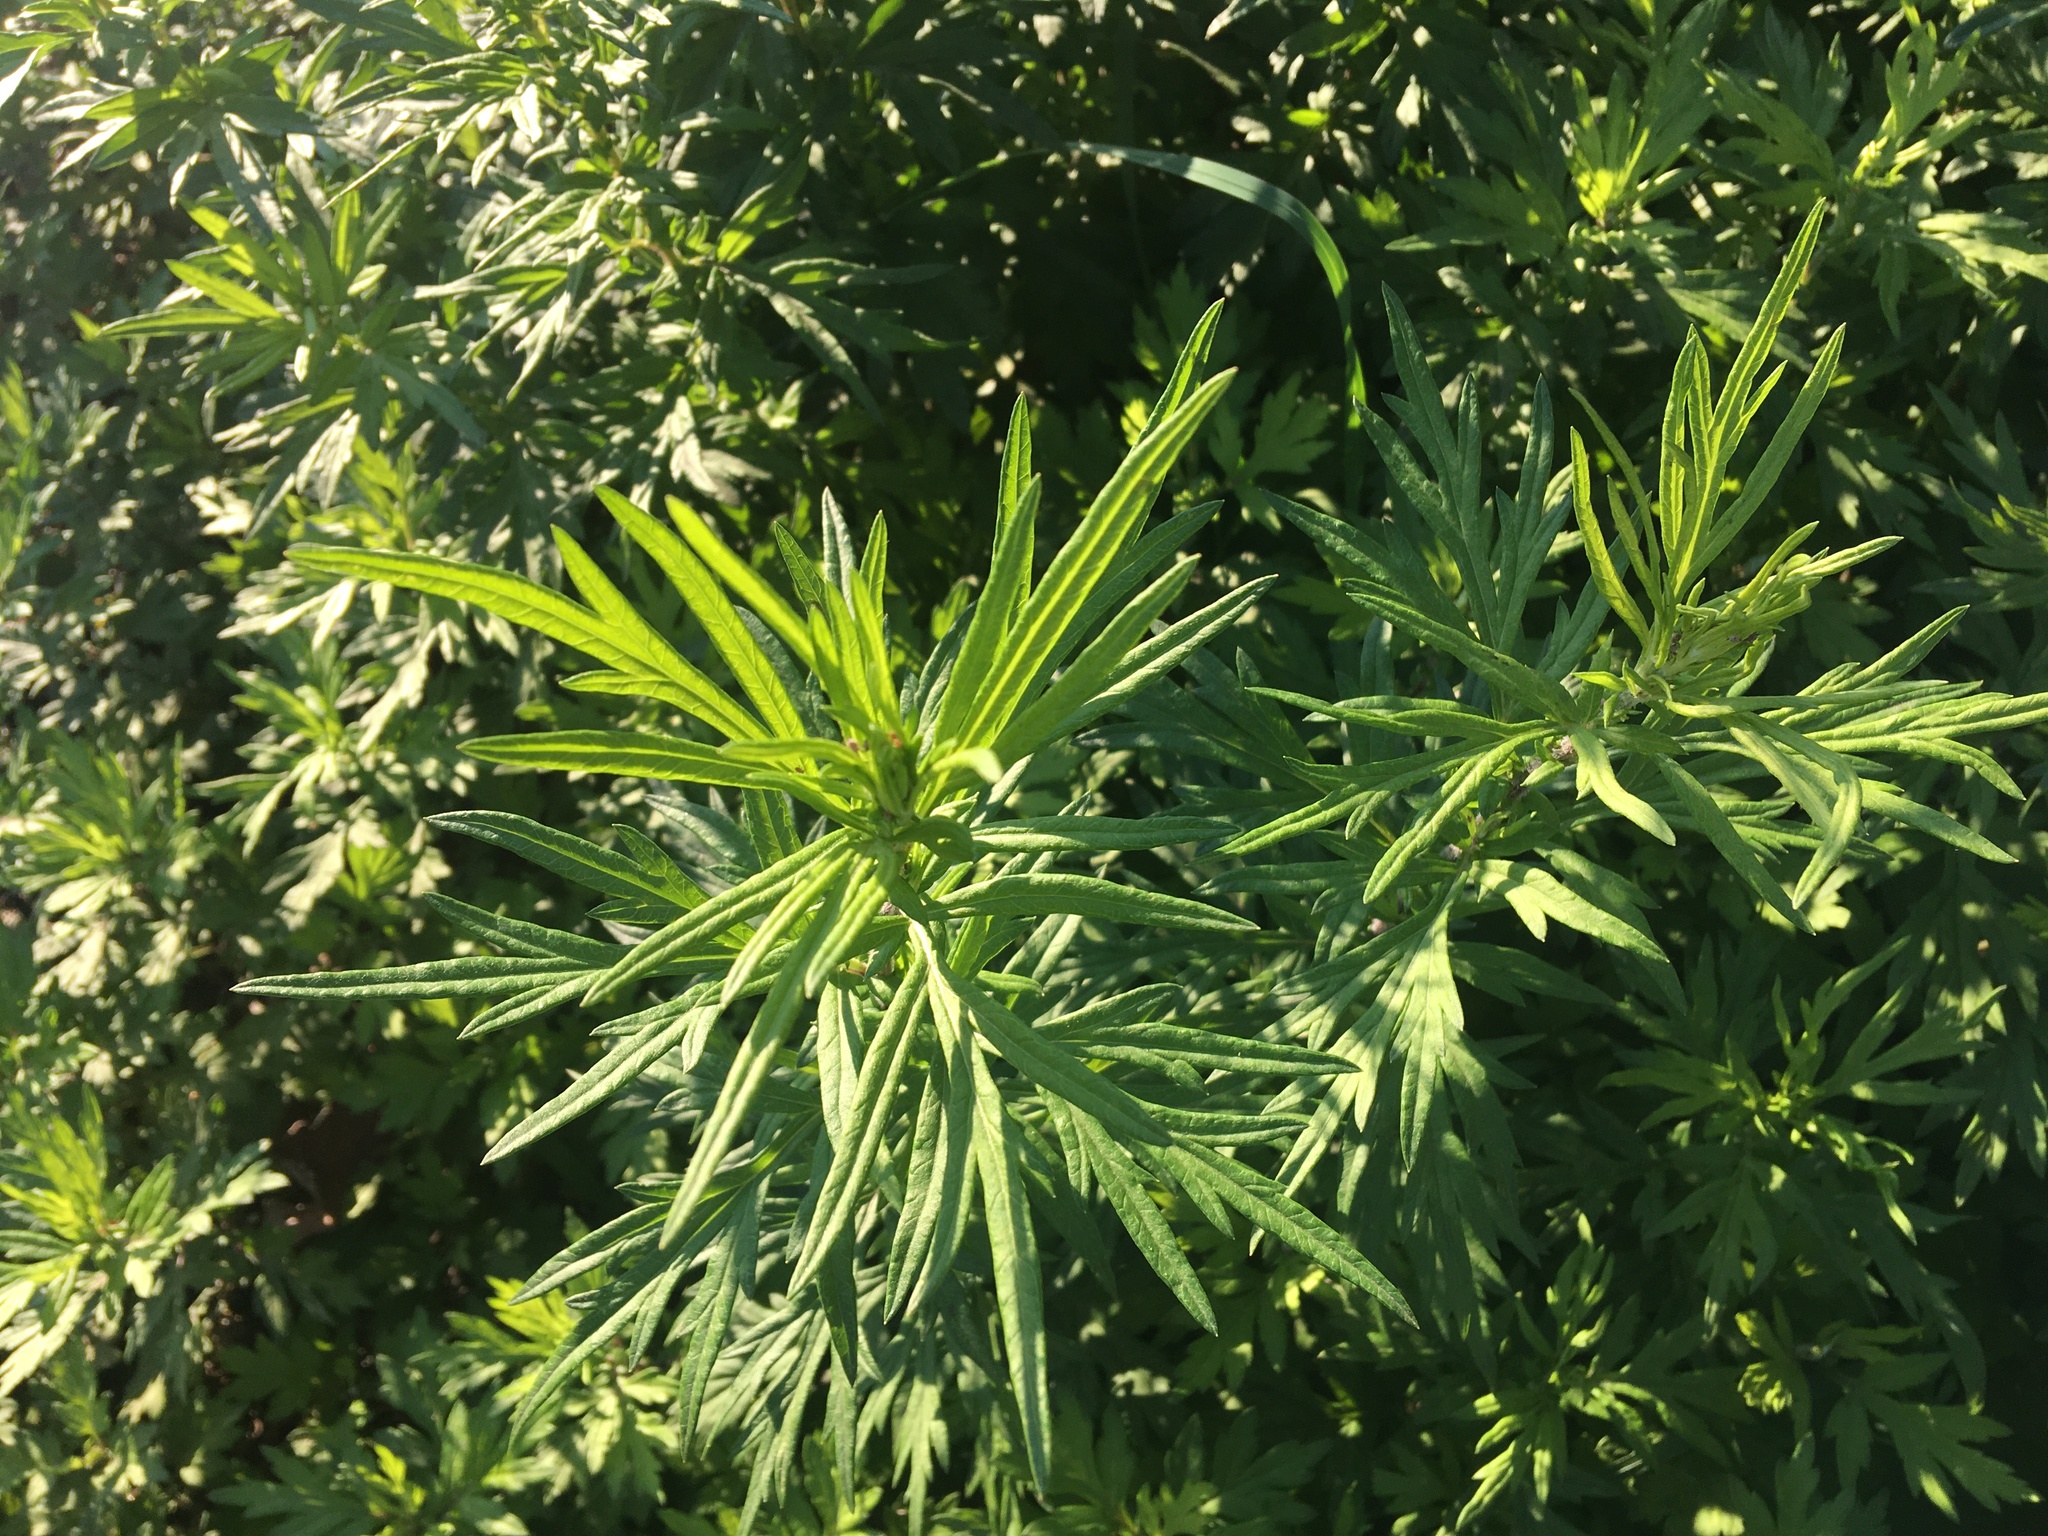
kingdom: Plantae
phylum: Tracheophyta
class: Magnoliopsida
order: Asterales
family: Asteraceae
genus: Artemisia
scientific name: Artemisia vulgaris
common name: Mugwort
